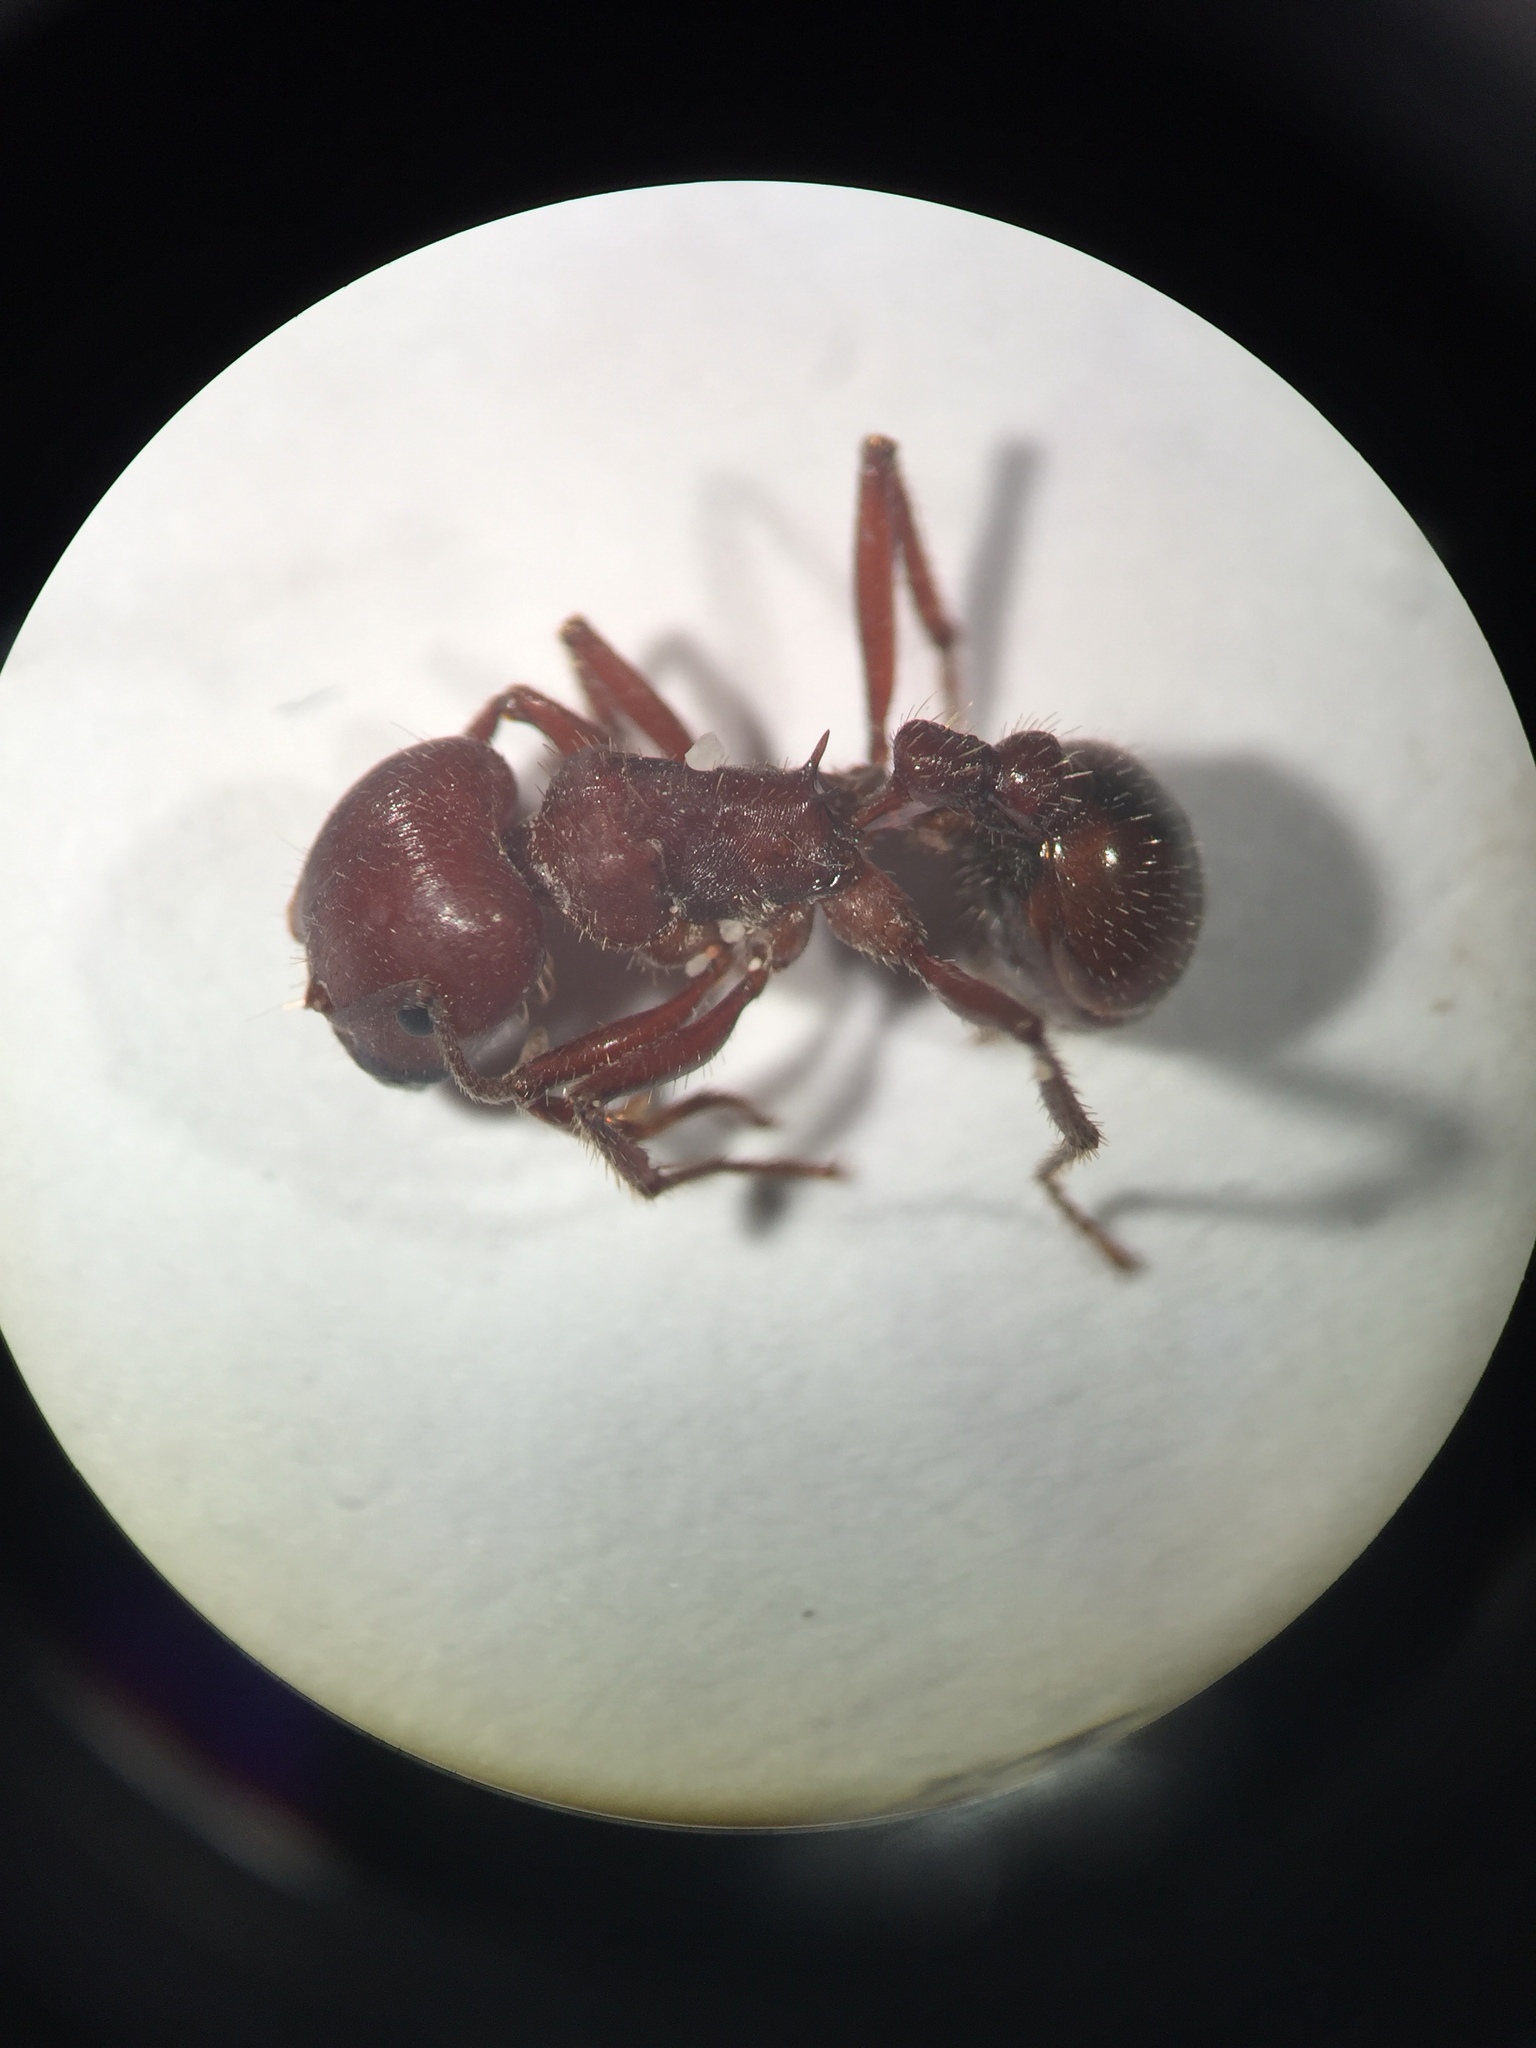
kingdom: Animalia
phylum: Arthropoda
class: Insecta
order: Hymenoptera
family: Formicidae
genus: Pogonomyrmex
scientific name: Pogonomyrmex barbatus
